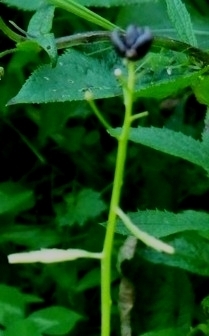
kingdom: Plantae
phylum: Tracheophyta
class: Magnoliopsida
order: Brassicales
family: Brassicaceae
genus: Cardamine
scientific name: Cardamine bulbifera
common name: Coralroot bittercress
